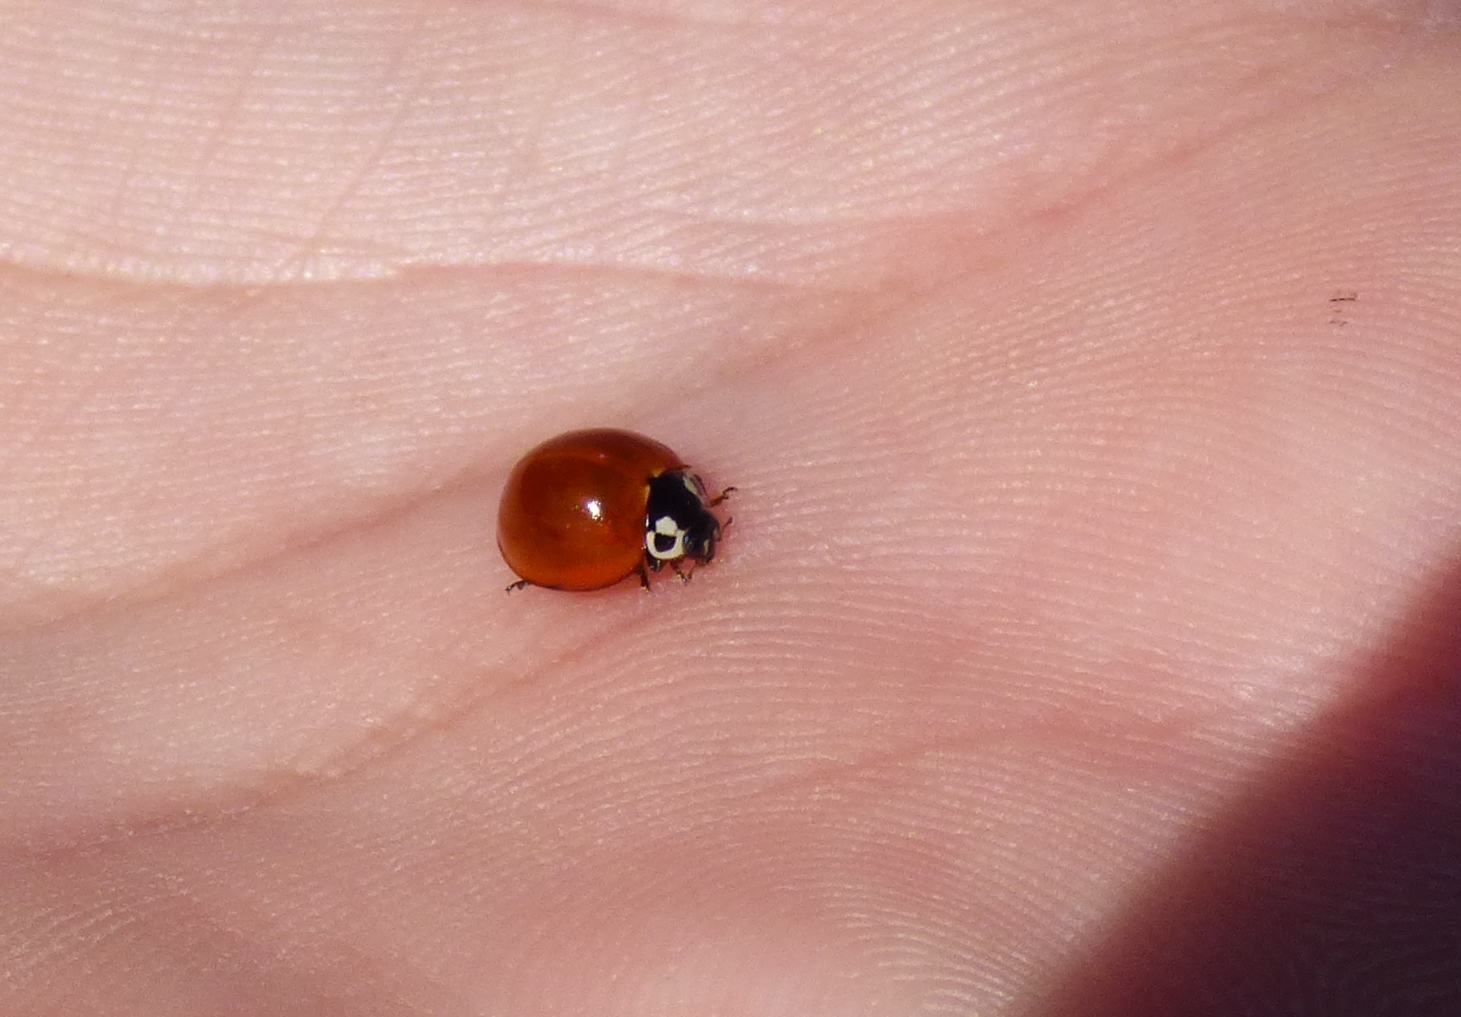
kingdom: Animalia
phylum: Arthropoda
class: Insecta
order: Coleoptera
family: Coccinellidae
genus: Cycloneda
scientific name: Cycloneda sanguinea
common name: Ladybird beetle
